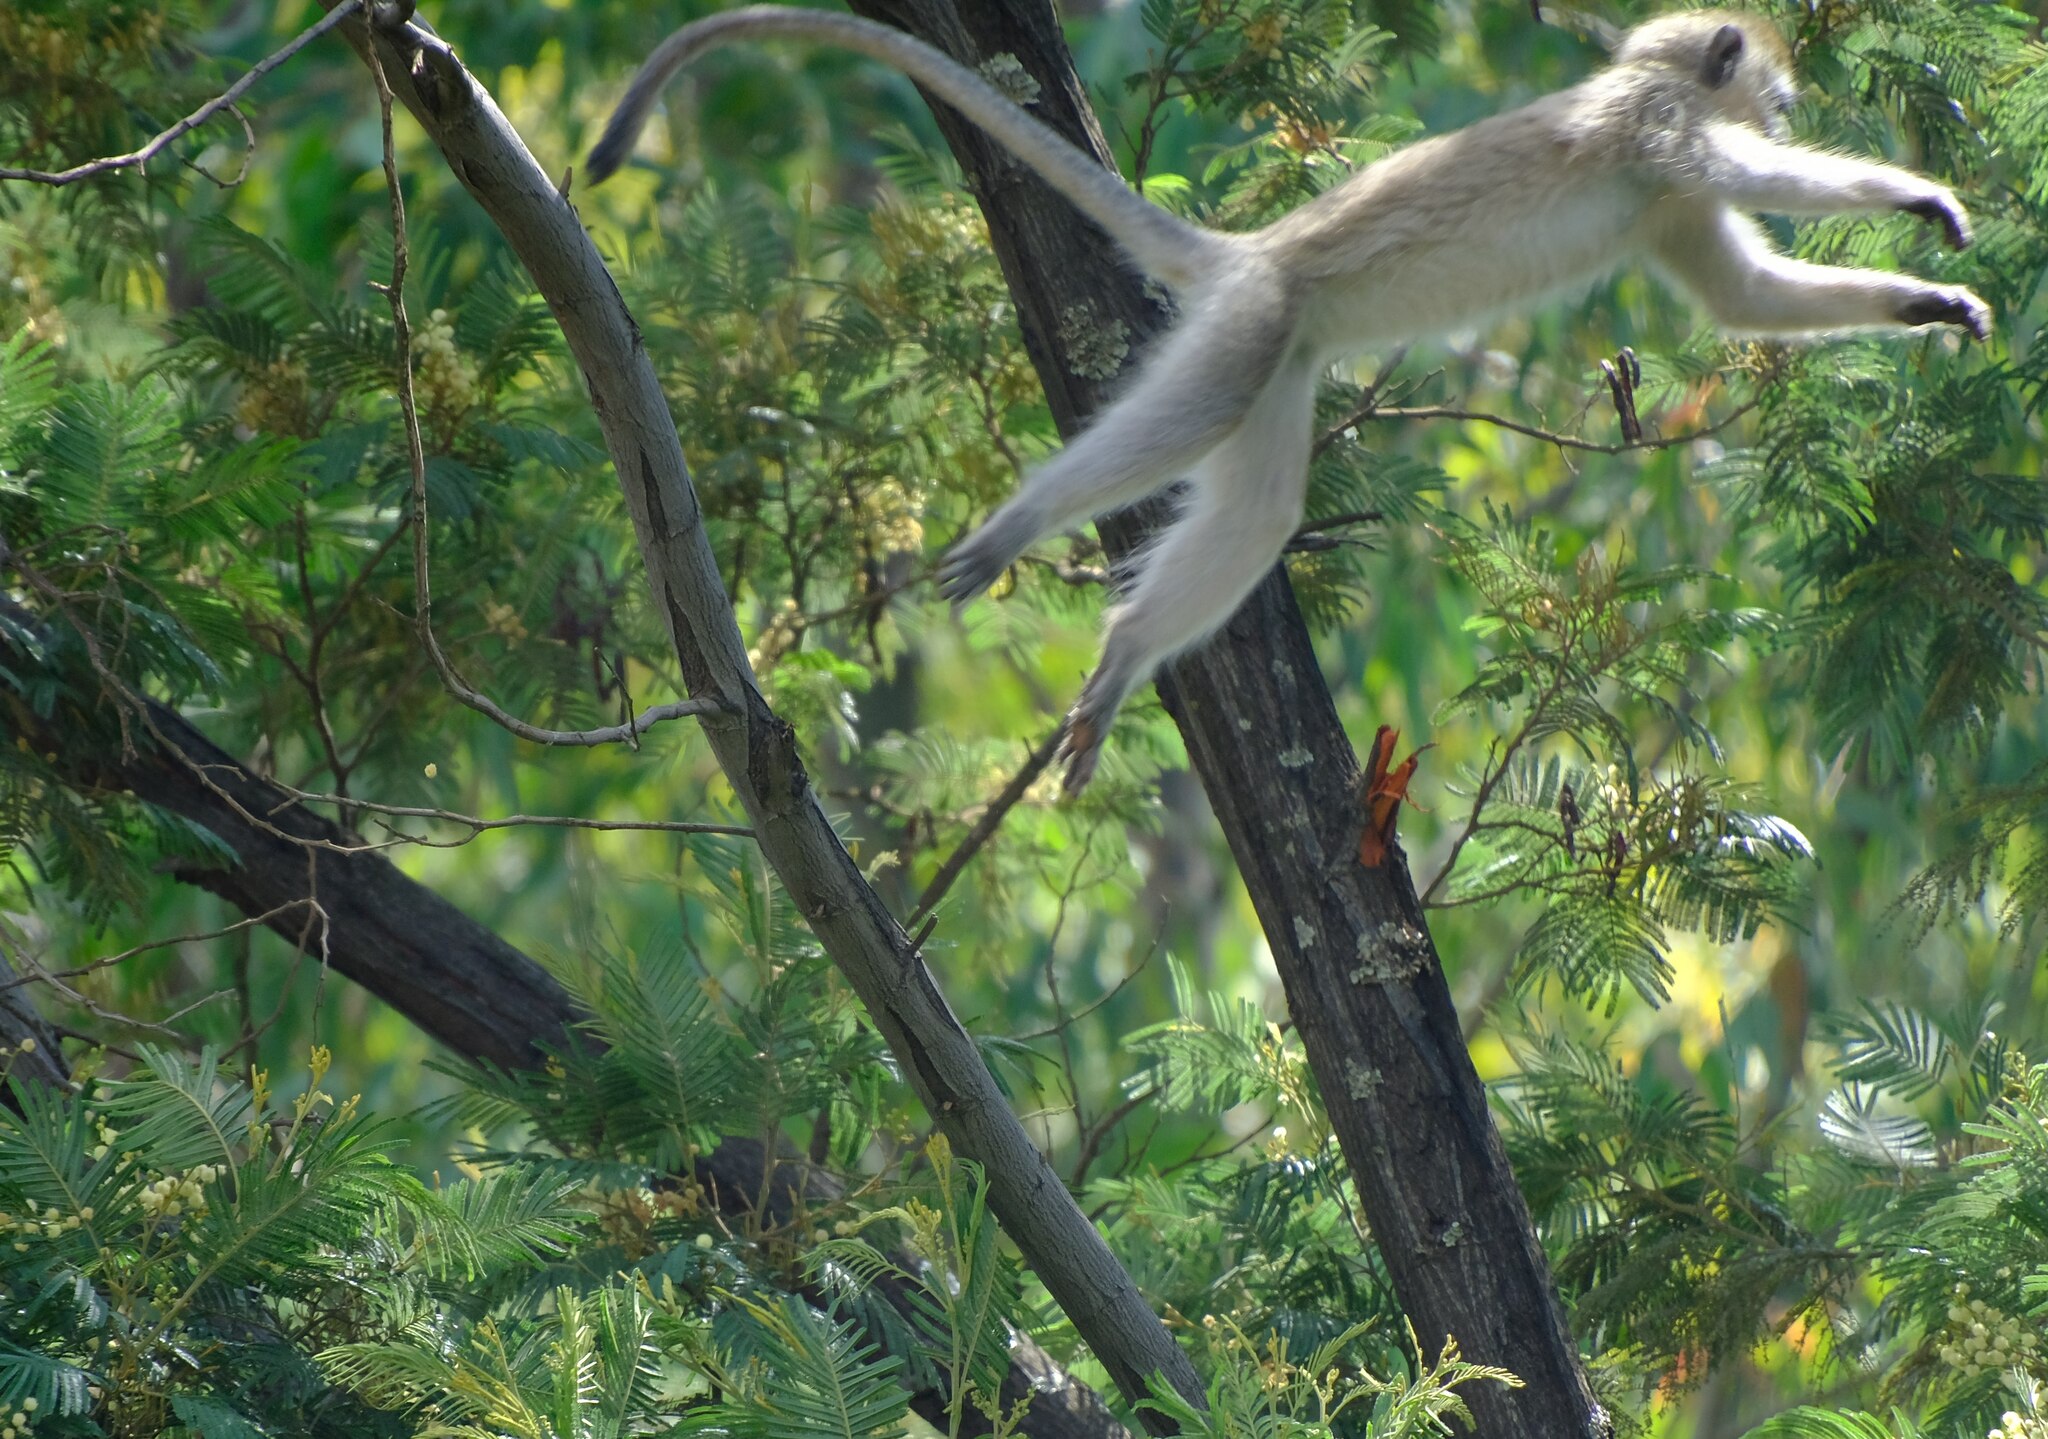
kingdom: Animalia
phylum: Chordata
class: Mammalia
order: Primates
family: Cercopithecidae
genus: Chlorocebus
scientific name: Chlorocebus pygerythrus
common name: Vervet monkey
